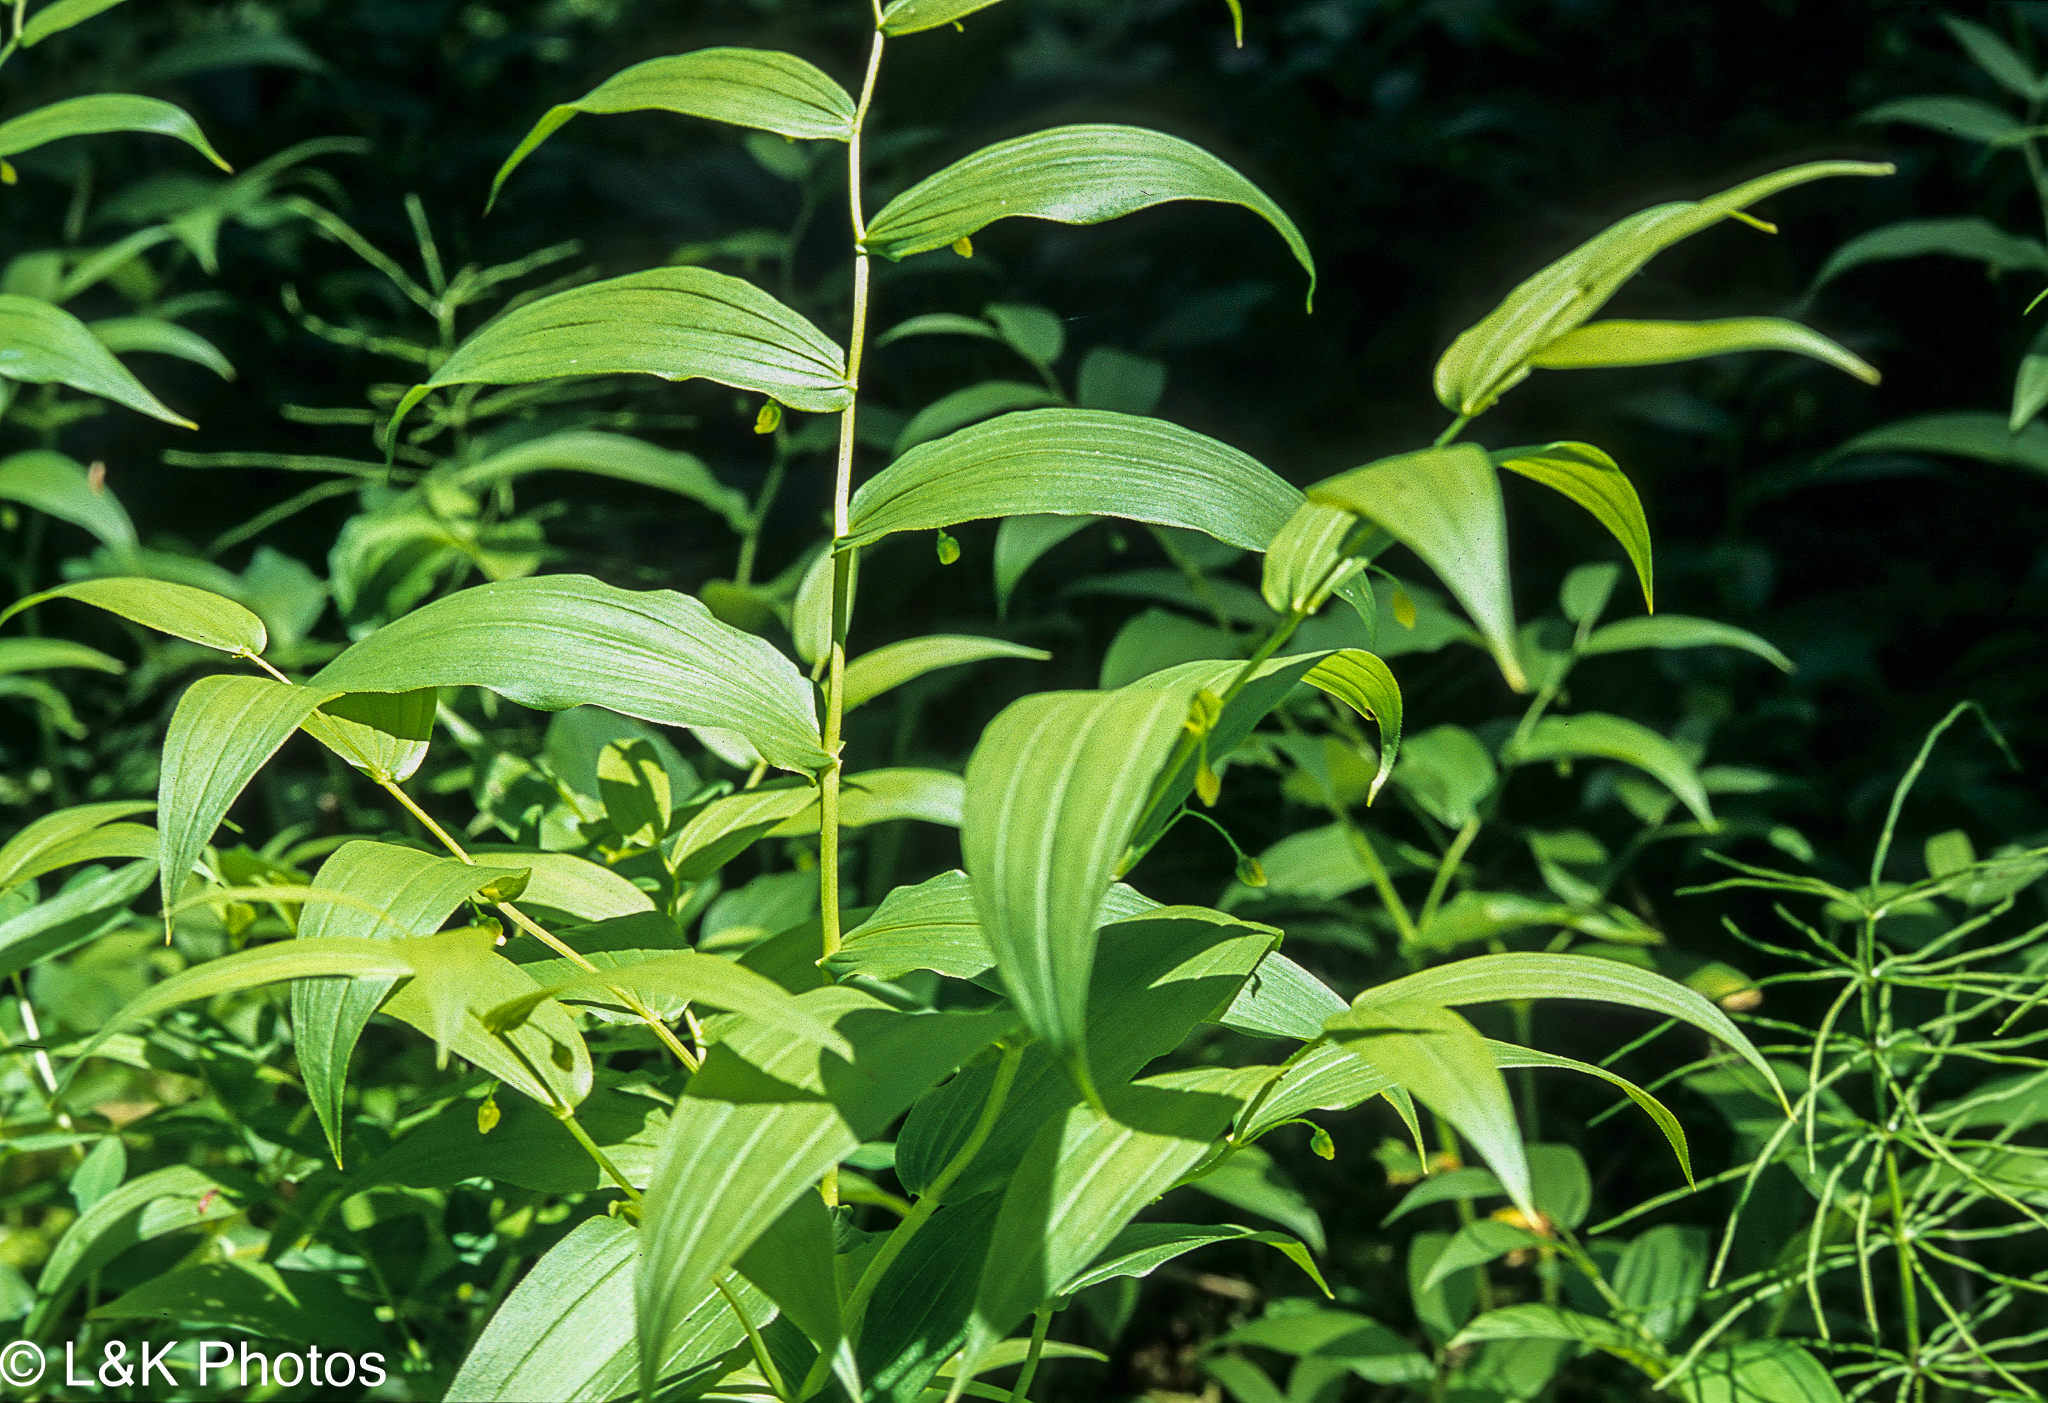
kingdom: Plantae
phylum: Tracheophyta
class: Liliopsida
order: Liliales
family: Liliaceae
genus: Streptopus
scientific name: Streptopus lanceolatus
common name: Rose mandarin
